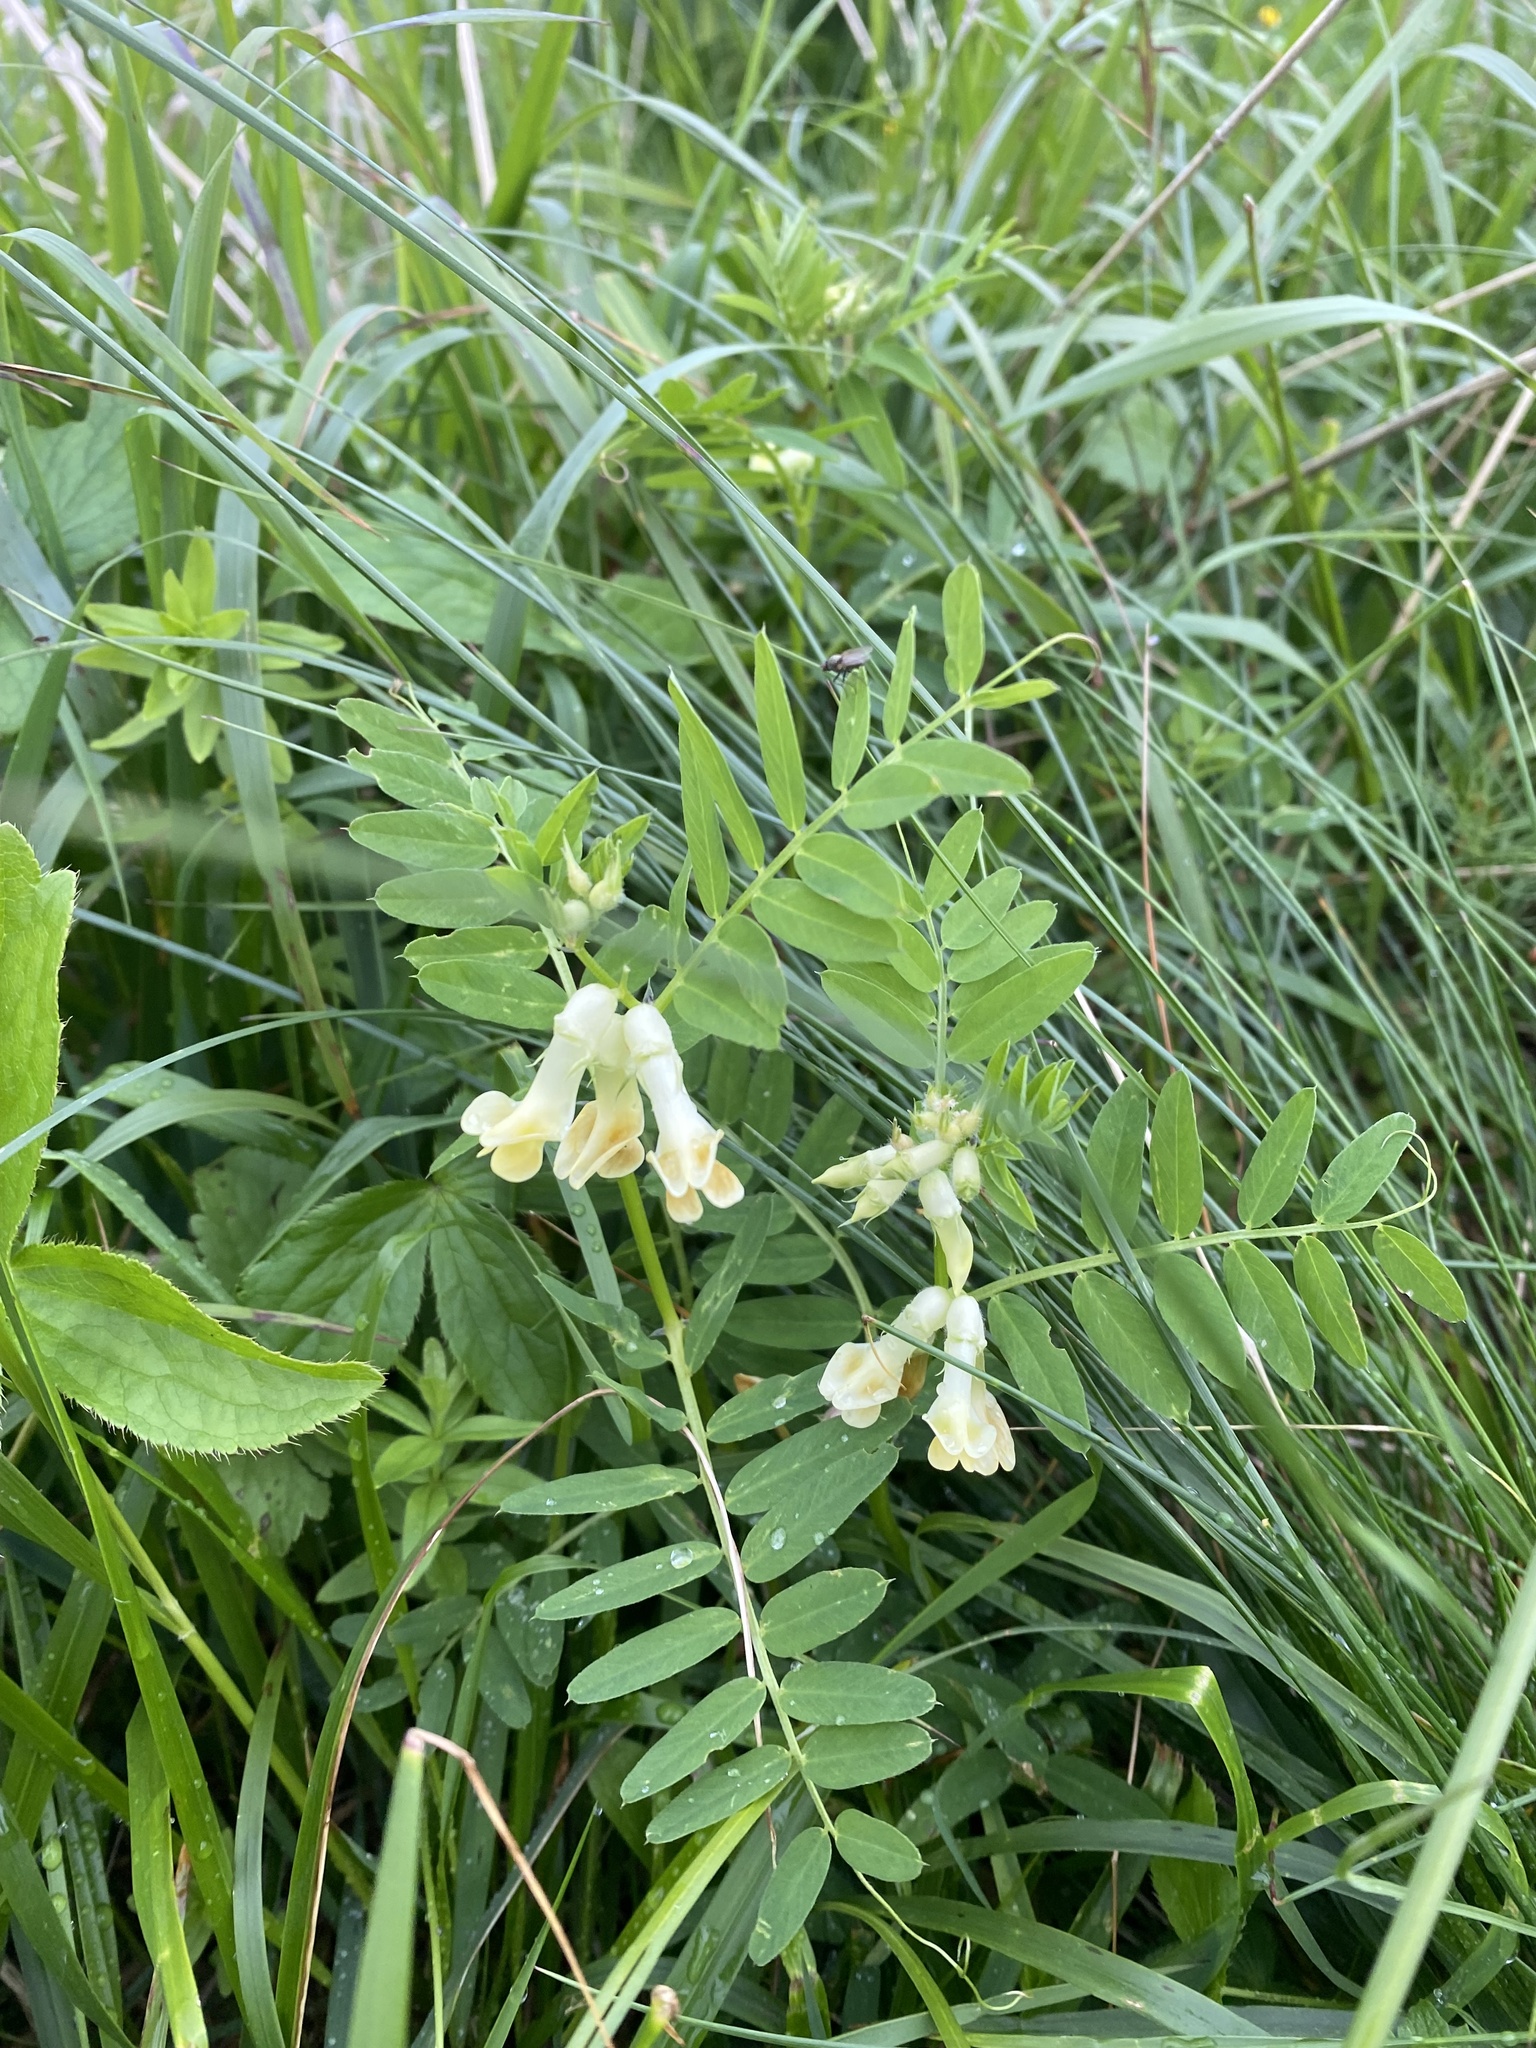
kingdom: Plantae
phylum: Tracheophyta
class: Magnoliopsida
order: Fabales
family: Fabaceae
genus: Vicia
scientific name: Vicia balansae
